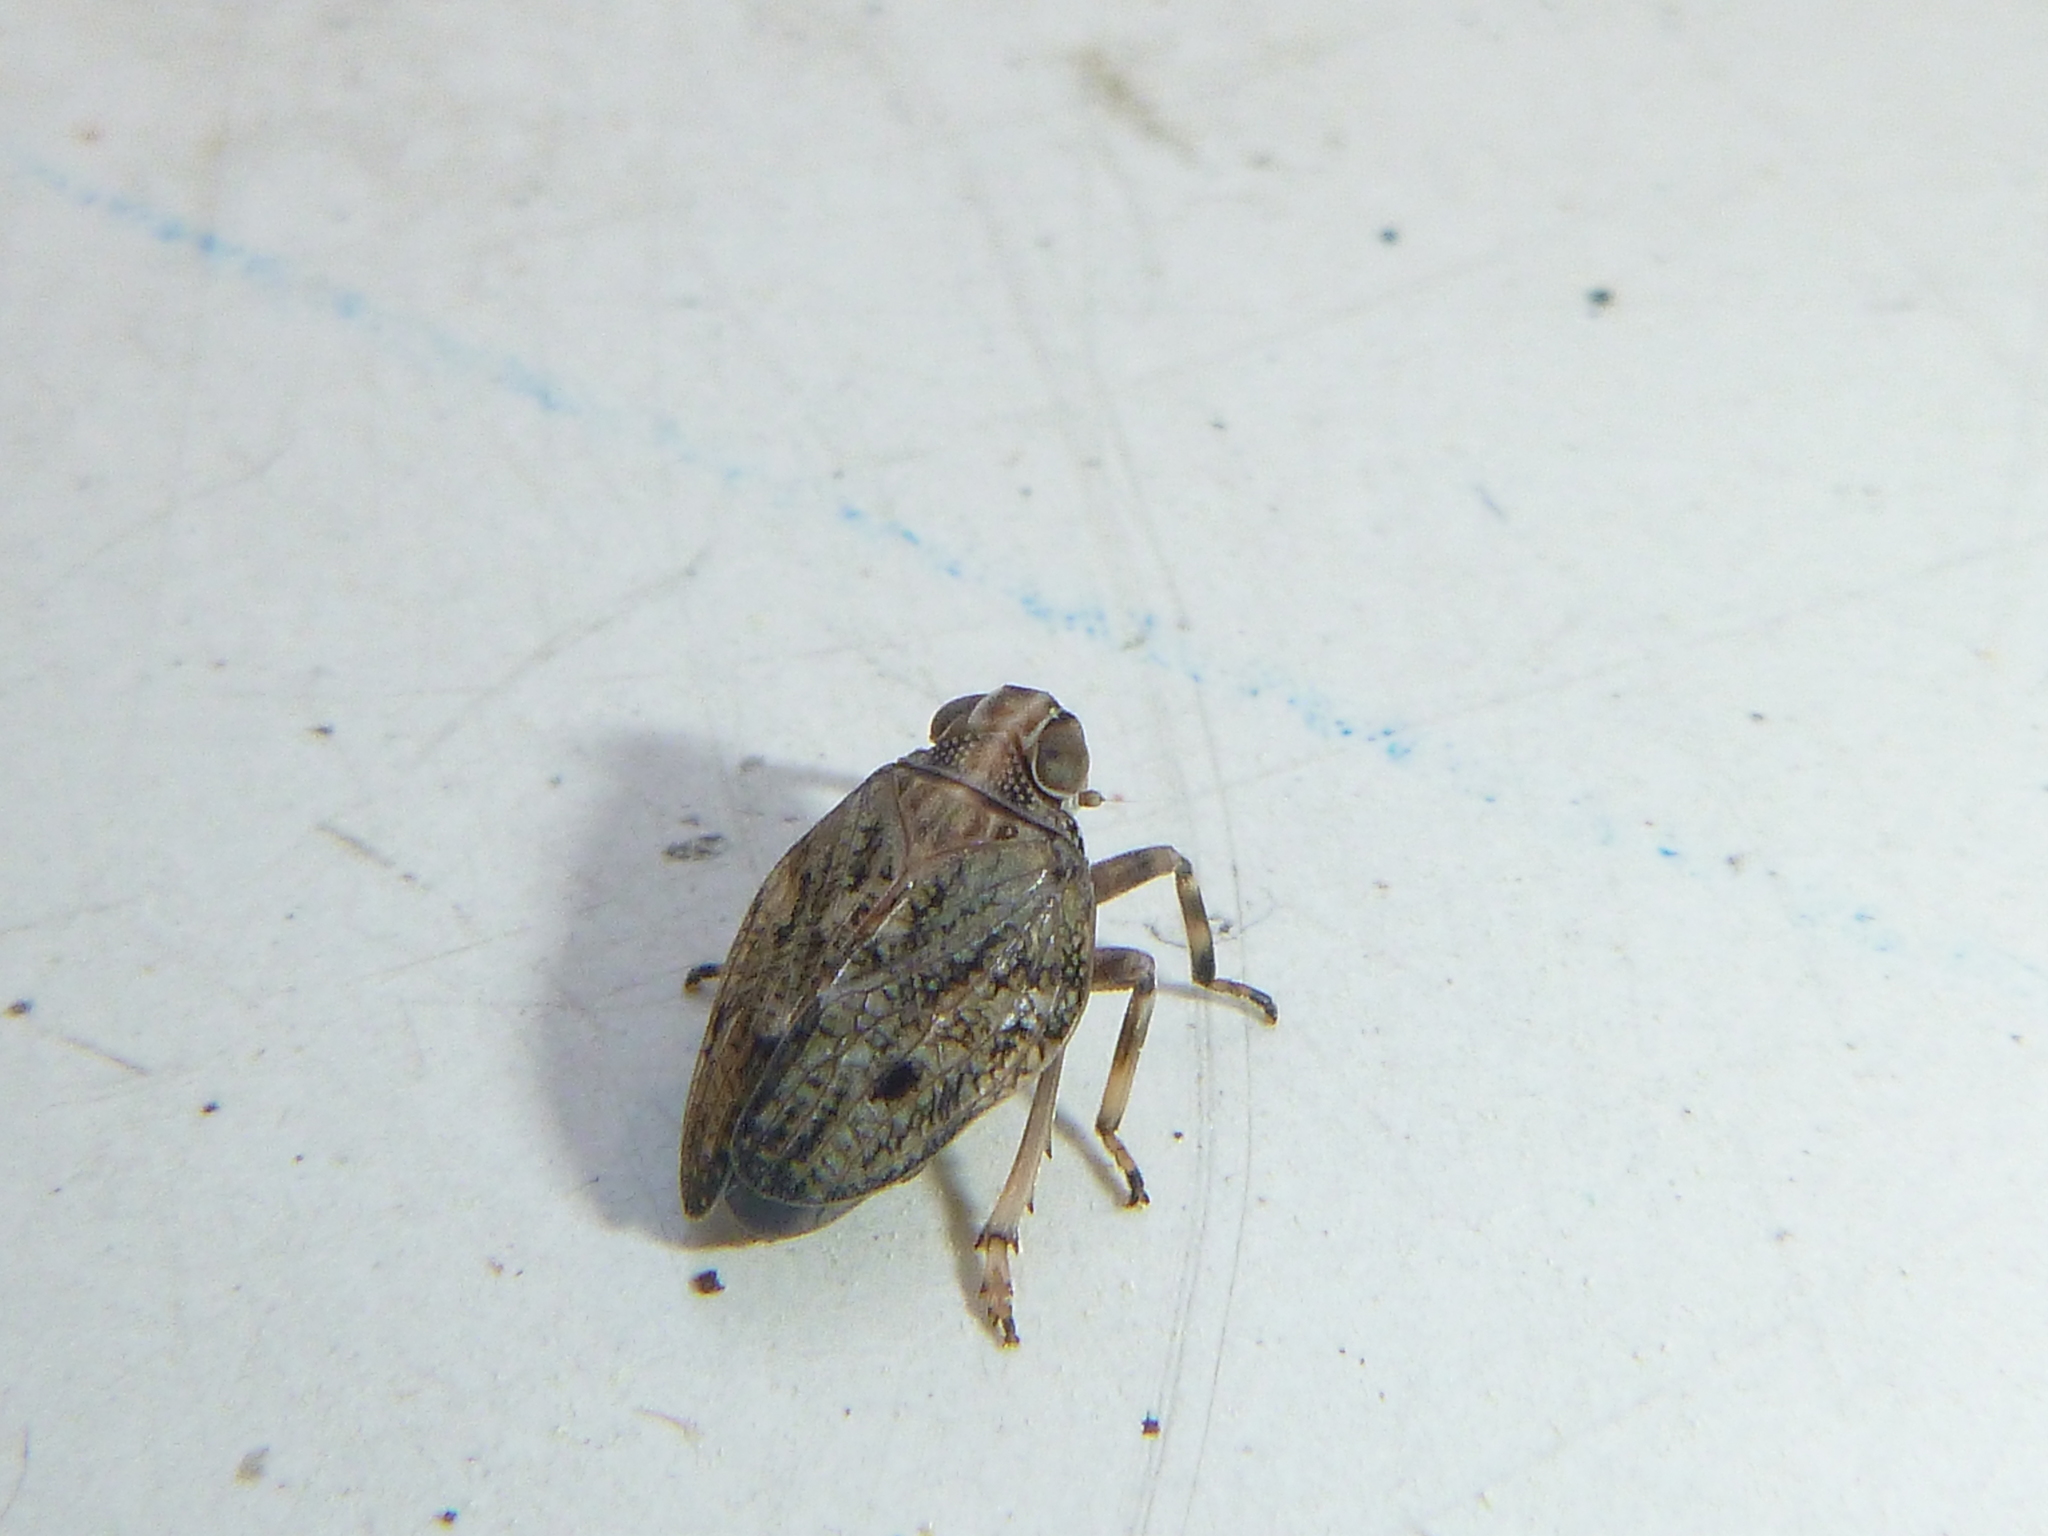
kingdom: Animalia
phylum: Arthropoda
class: Insecta
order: Hemiptera
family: Issidae
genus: Issus
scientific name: Issus coleoptratus
